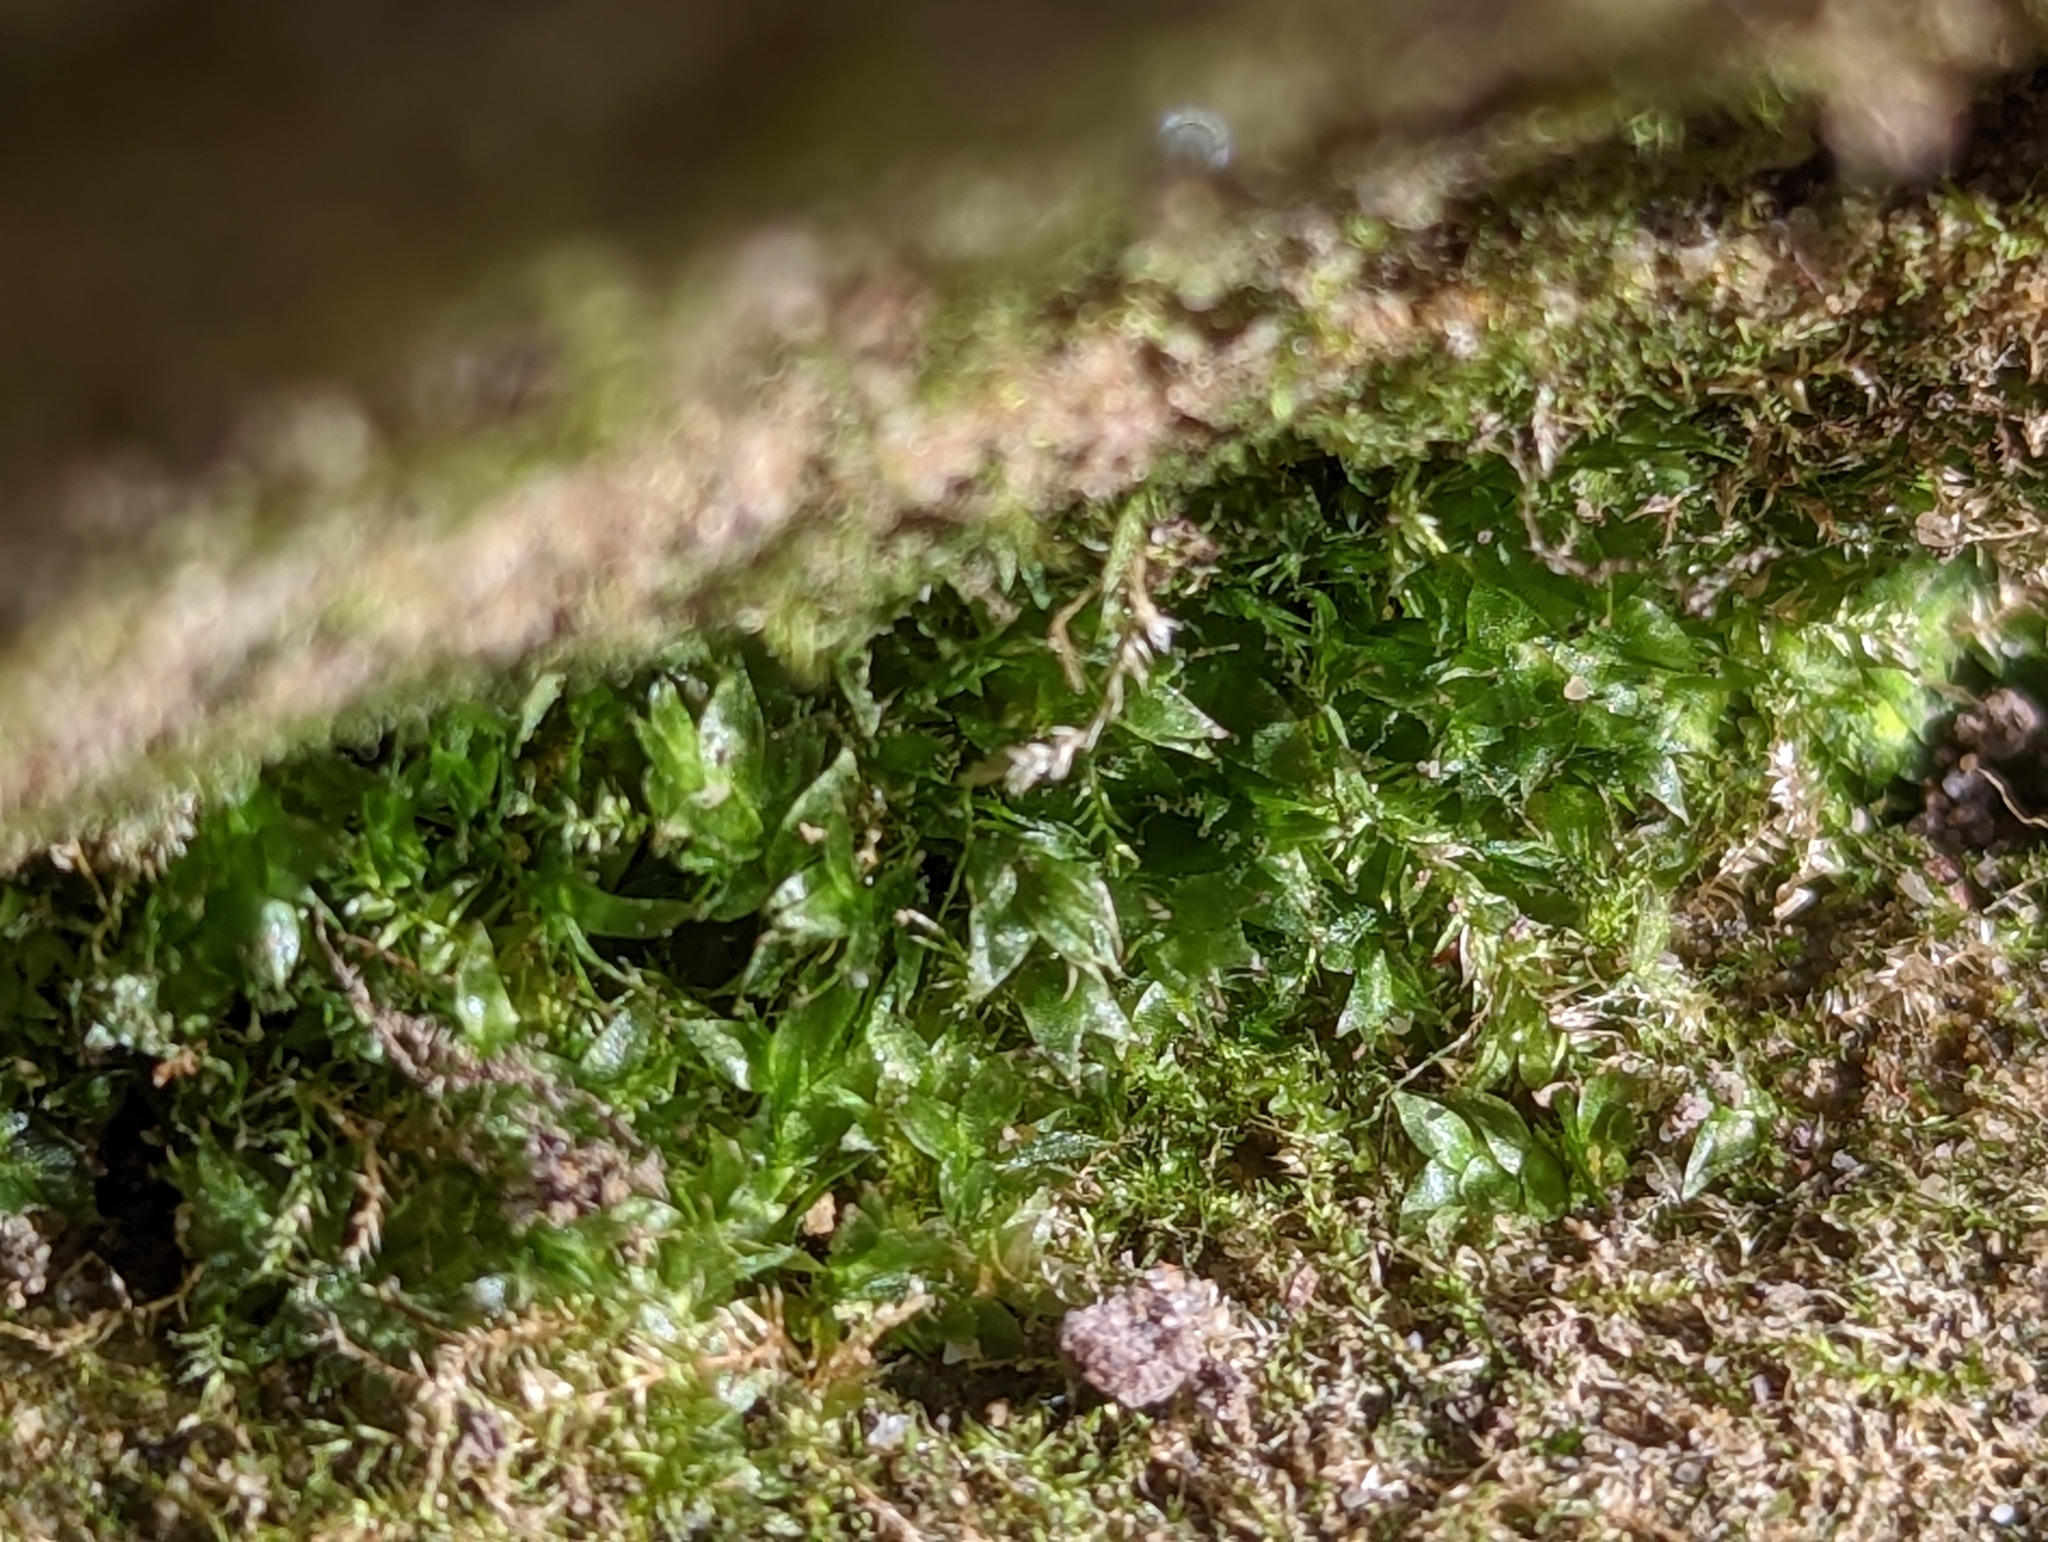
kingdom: Plantae
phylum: Bryophyta
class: Bryopsida
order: Hookeriales
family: Hookeriaceae
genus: Hookeria
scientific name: Hookeria acutifolia
